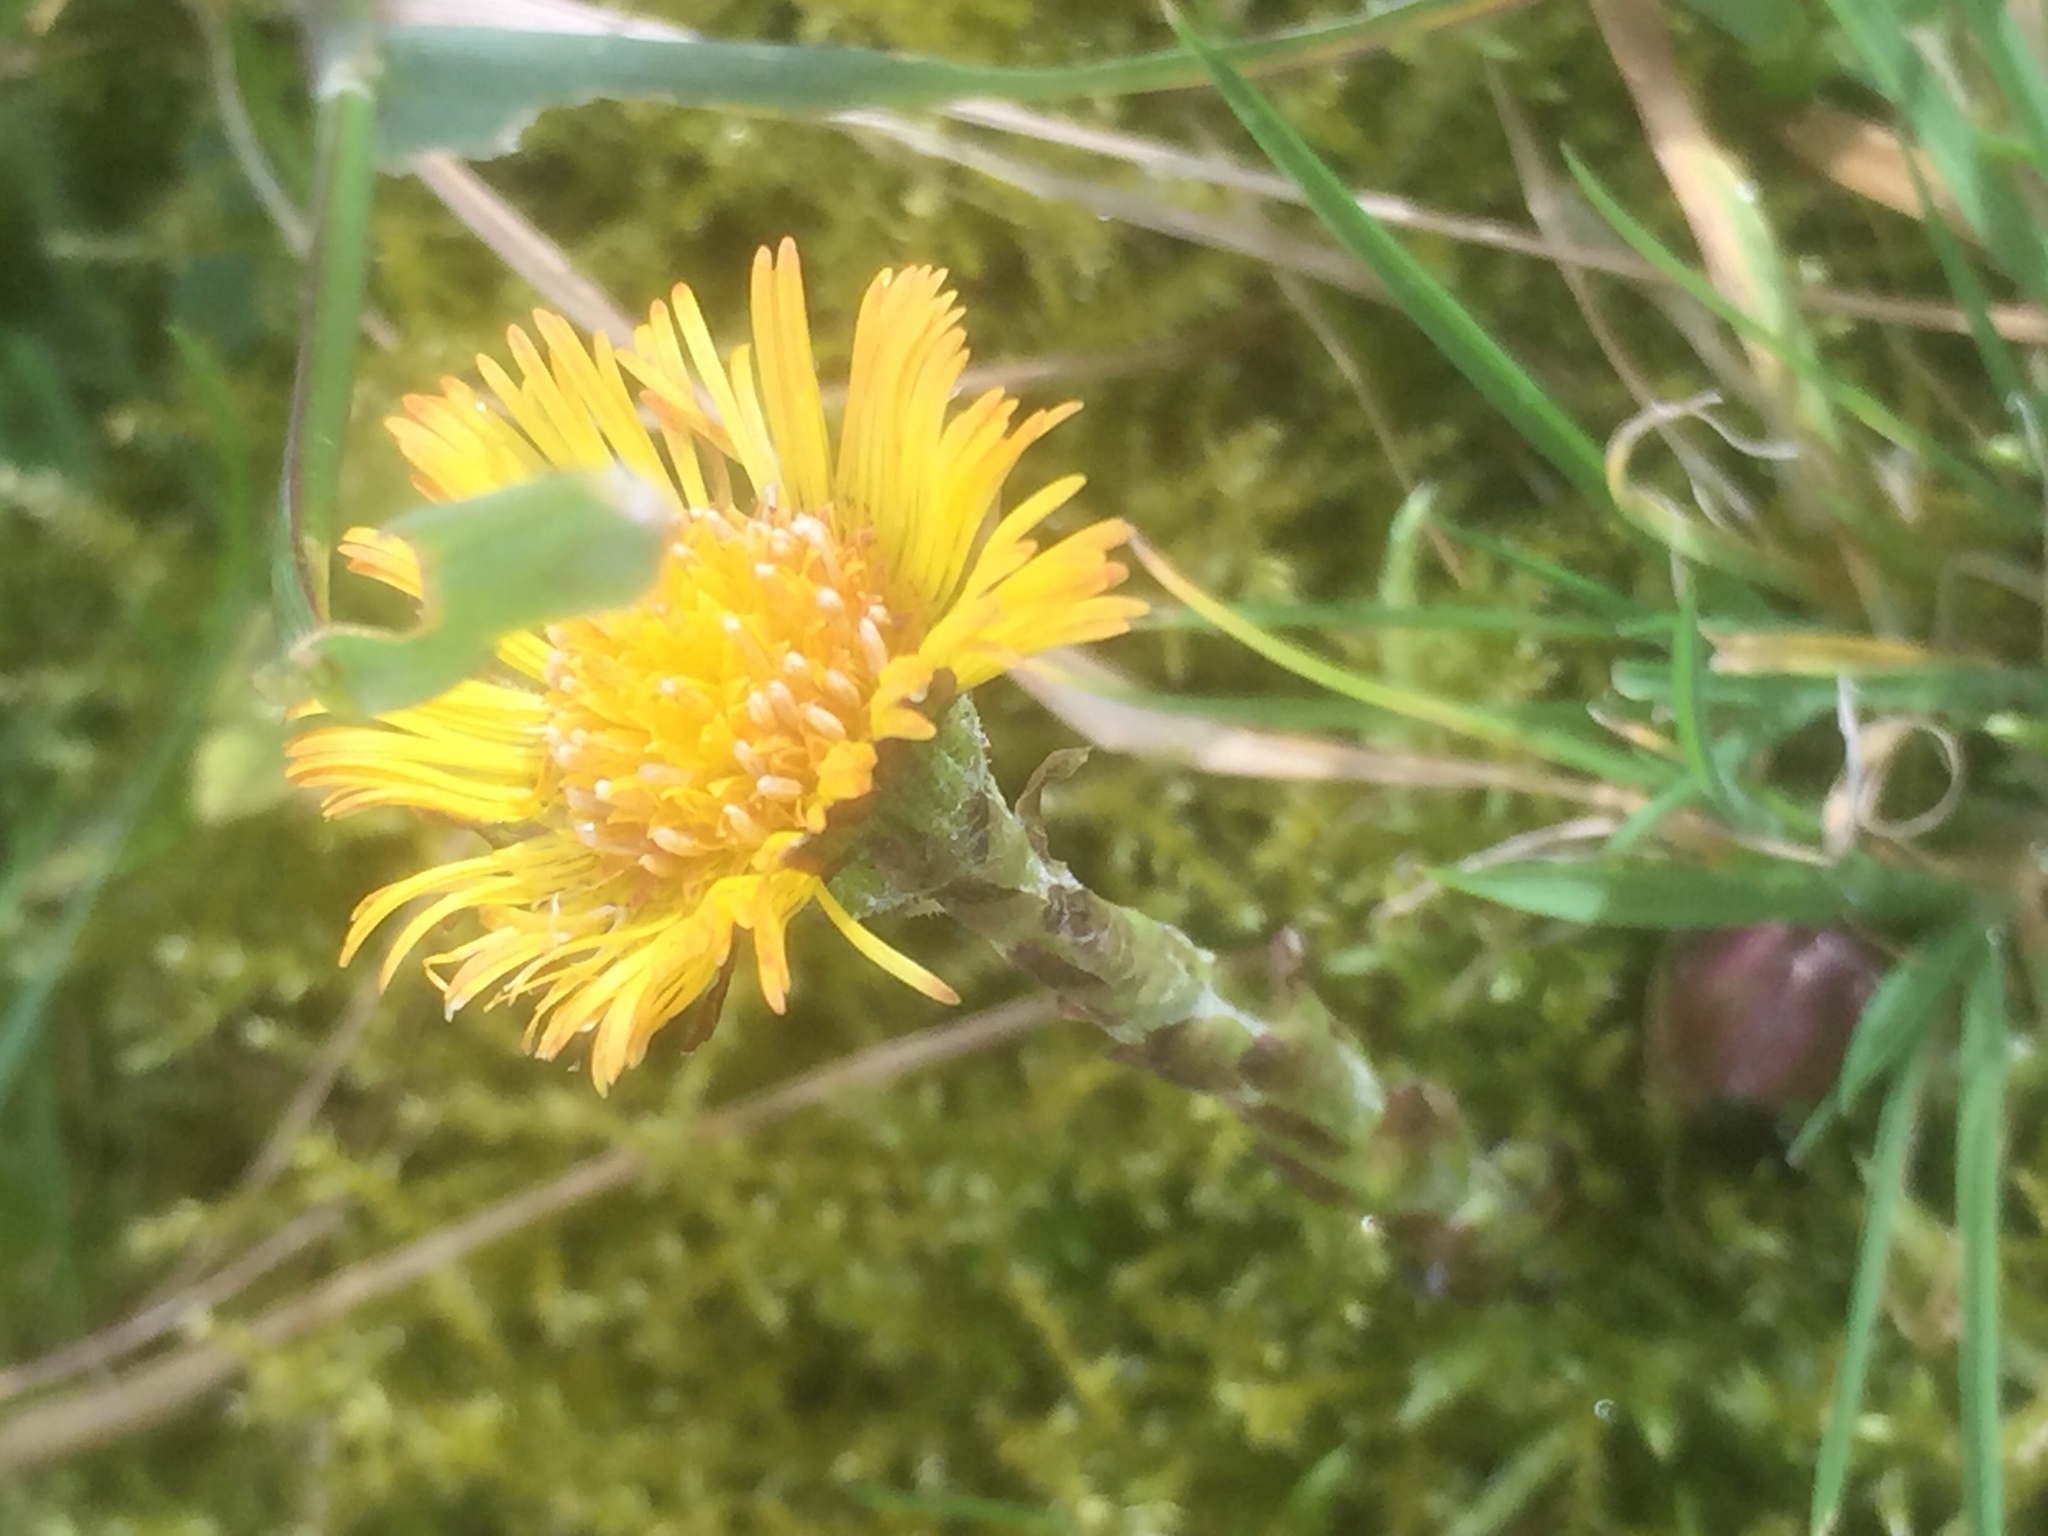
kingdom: Plantae
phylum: Tracheophyta
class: Magnoliopsida
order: Asterales
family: Asteraceae
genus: Tussilago
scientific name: Tussilago farfara
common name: Coltsfoot
